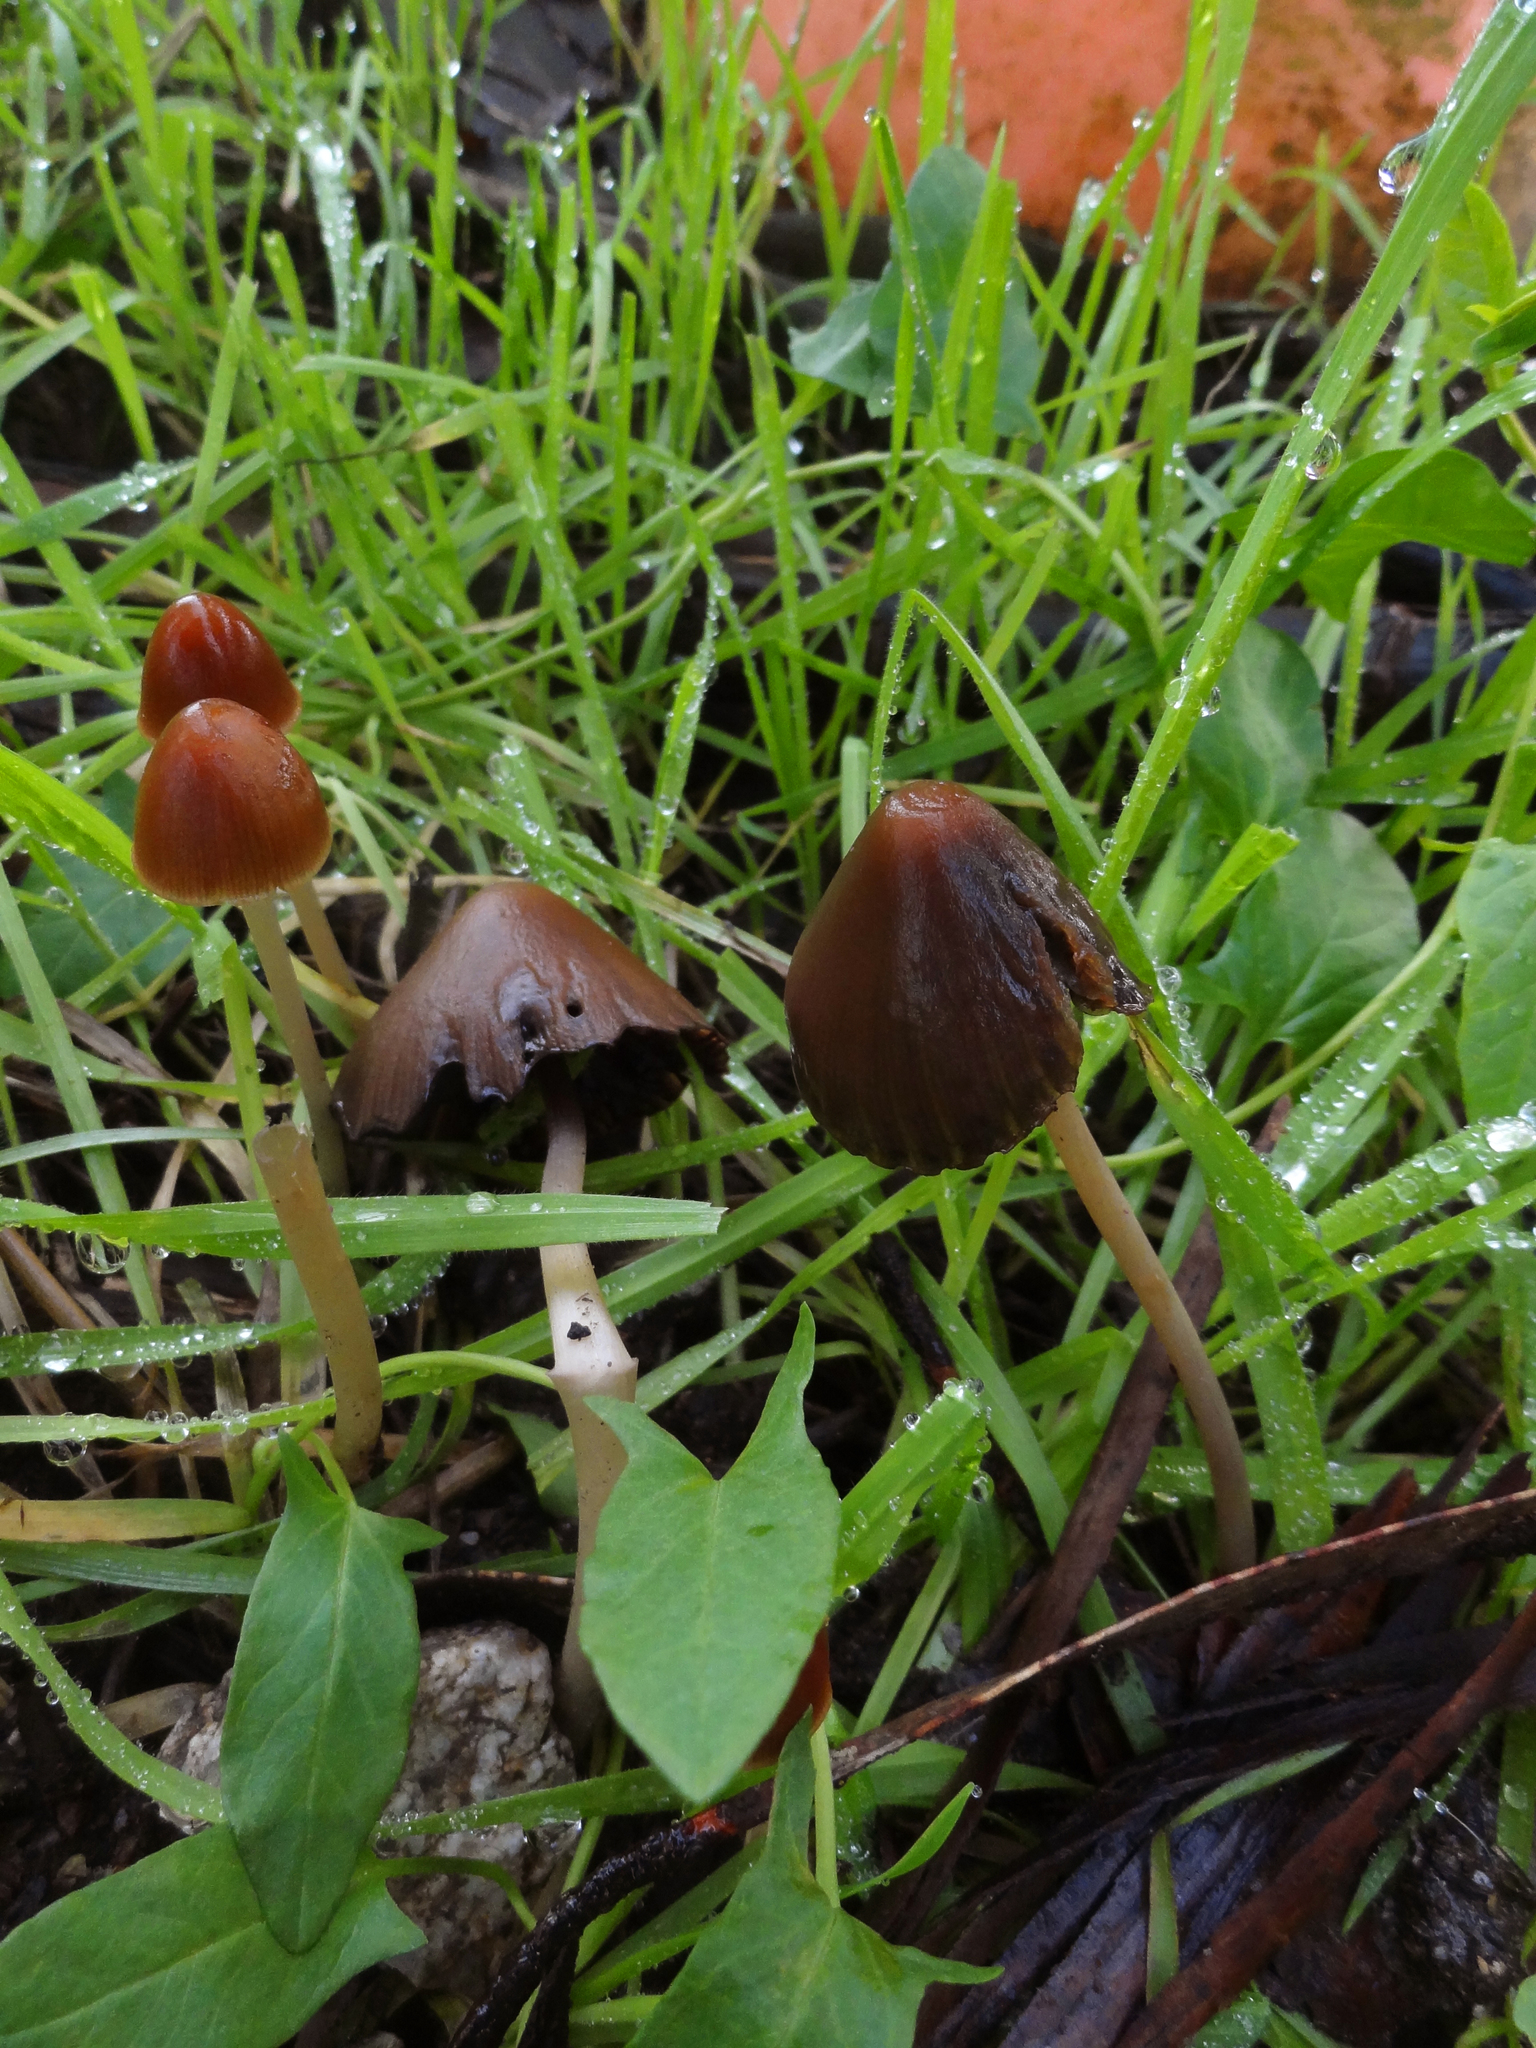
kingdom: Fungi
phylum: Basidiomycota
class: Agaricomycetes
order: Agaricales
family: Psathyrellaceae
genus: Psathyrella
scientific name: Psathyrella atrospora
